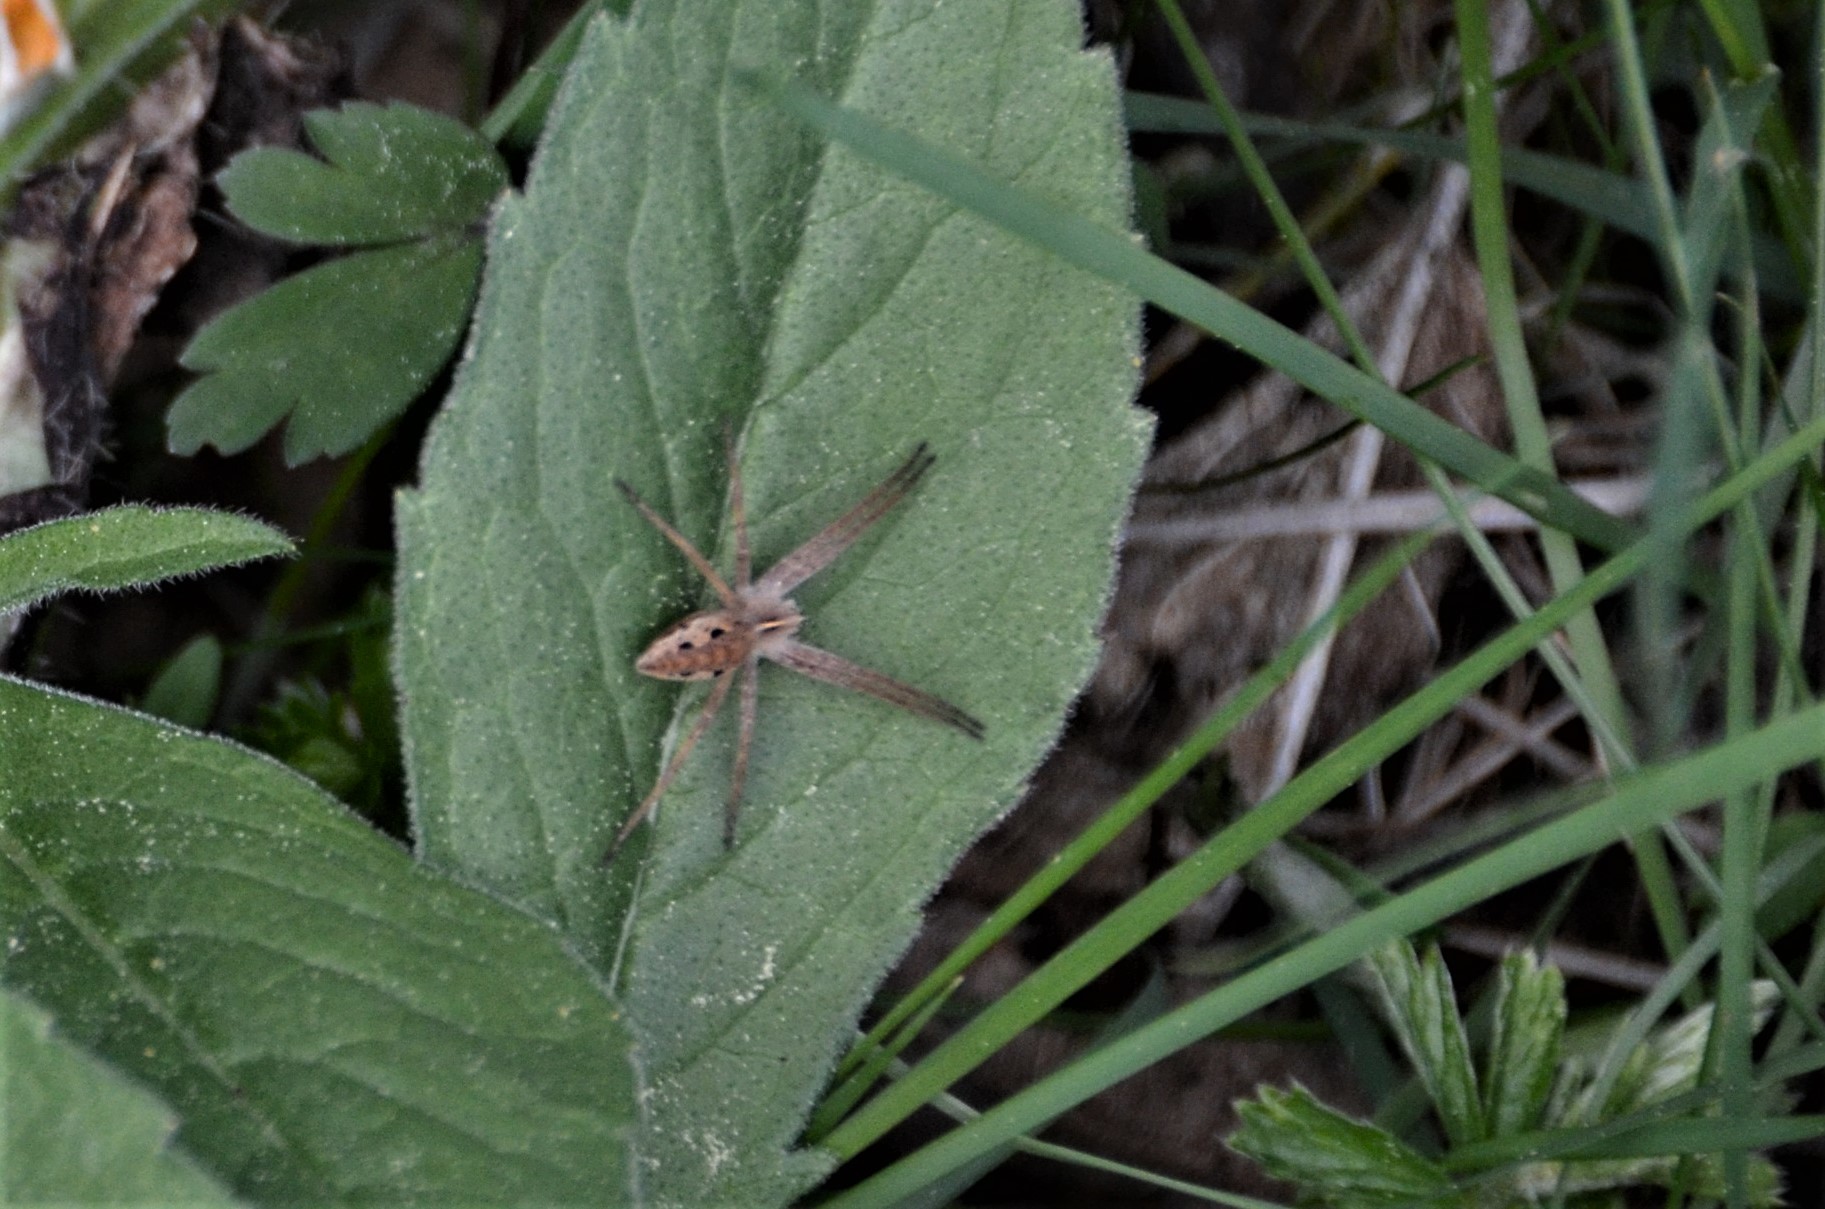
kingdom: Animalia
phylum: Arthropoda
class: Arachnida
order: Araneae
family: Pisauridae
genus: Pisaura
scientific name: Pisaura mirabilis
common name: Tent spider
